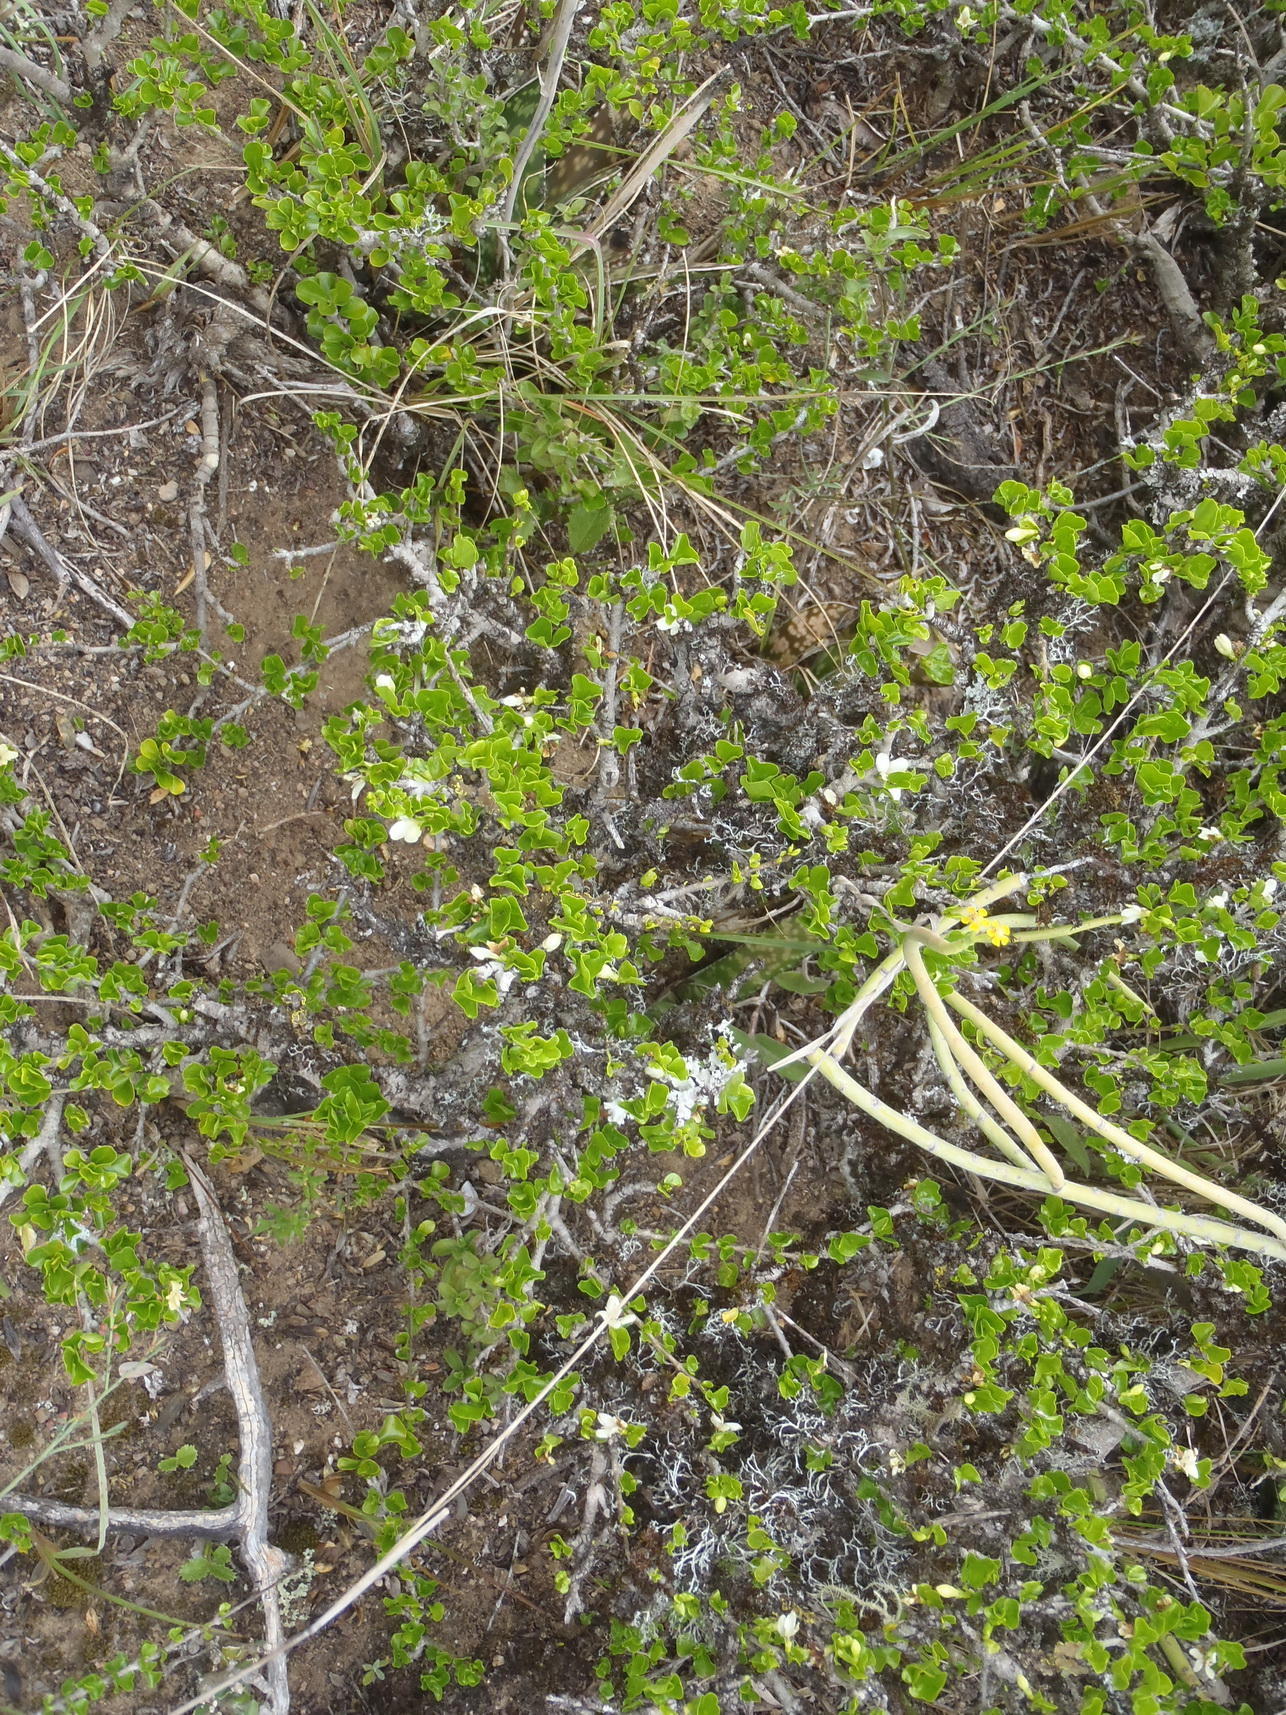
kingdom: Plantae
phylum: Tracheophyta
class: Magnoliopsida
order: Gentianales
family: Rubiaceae
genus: Coddia
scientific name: Coddia rudis
